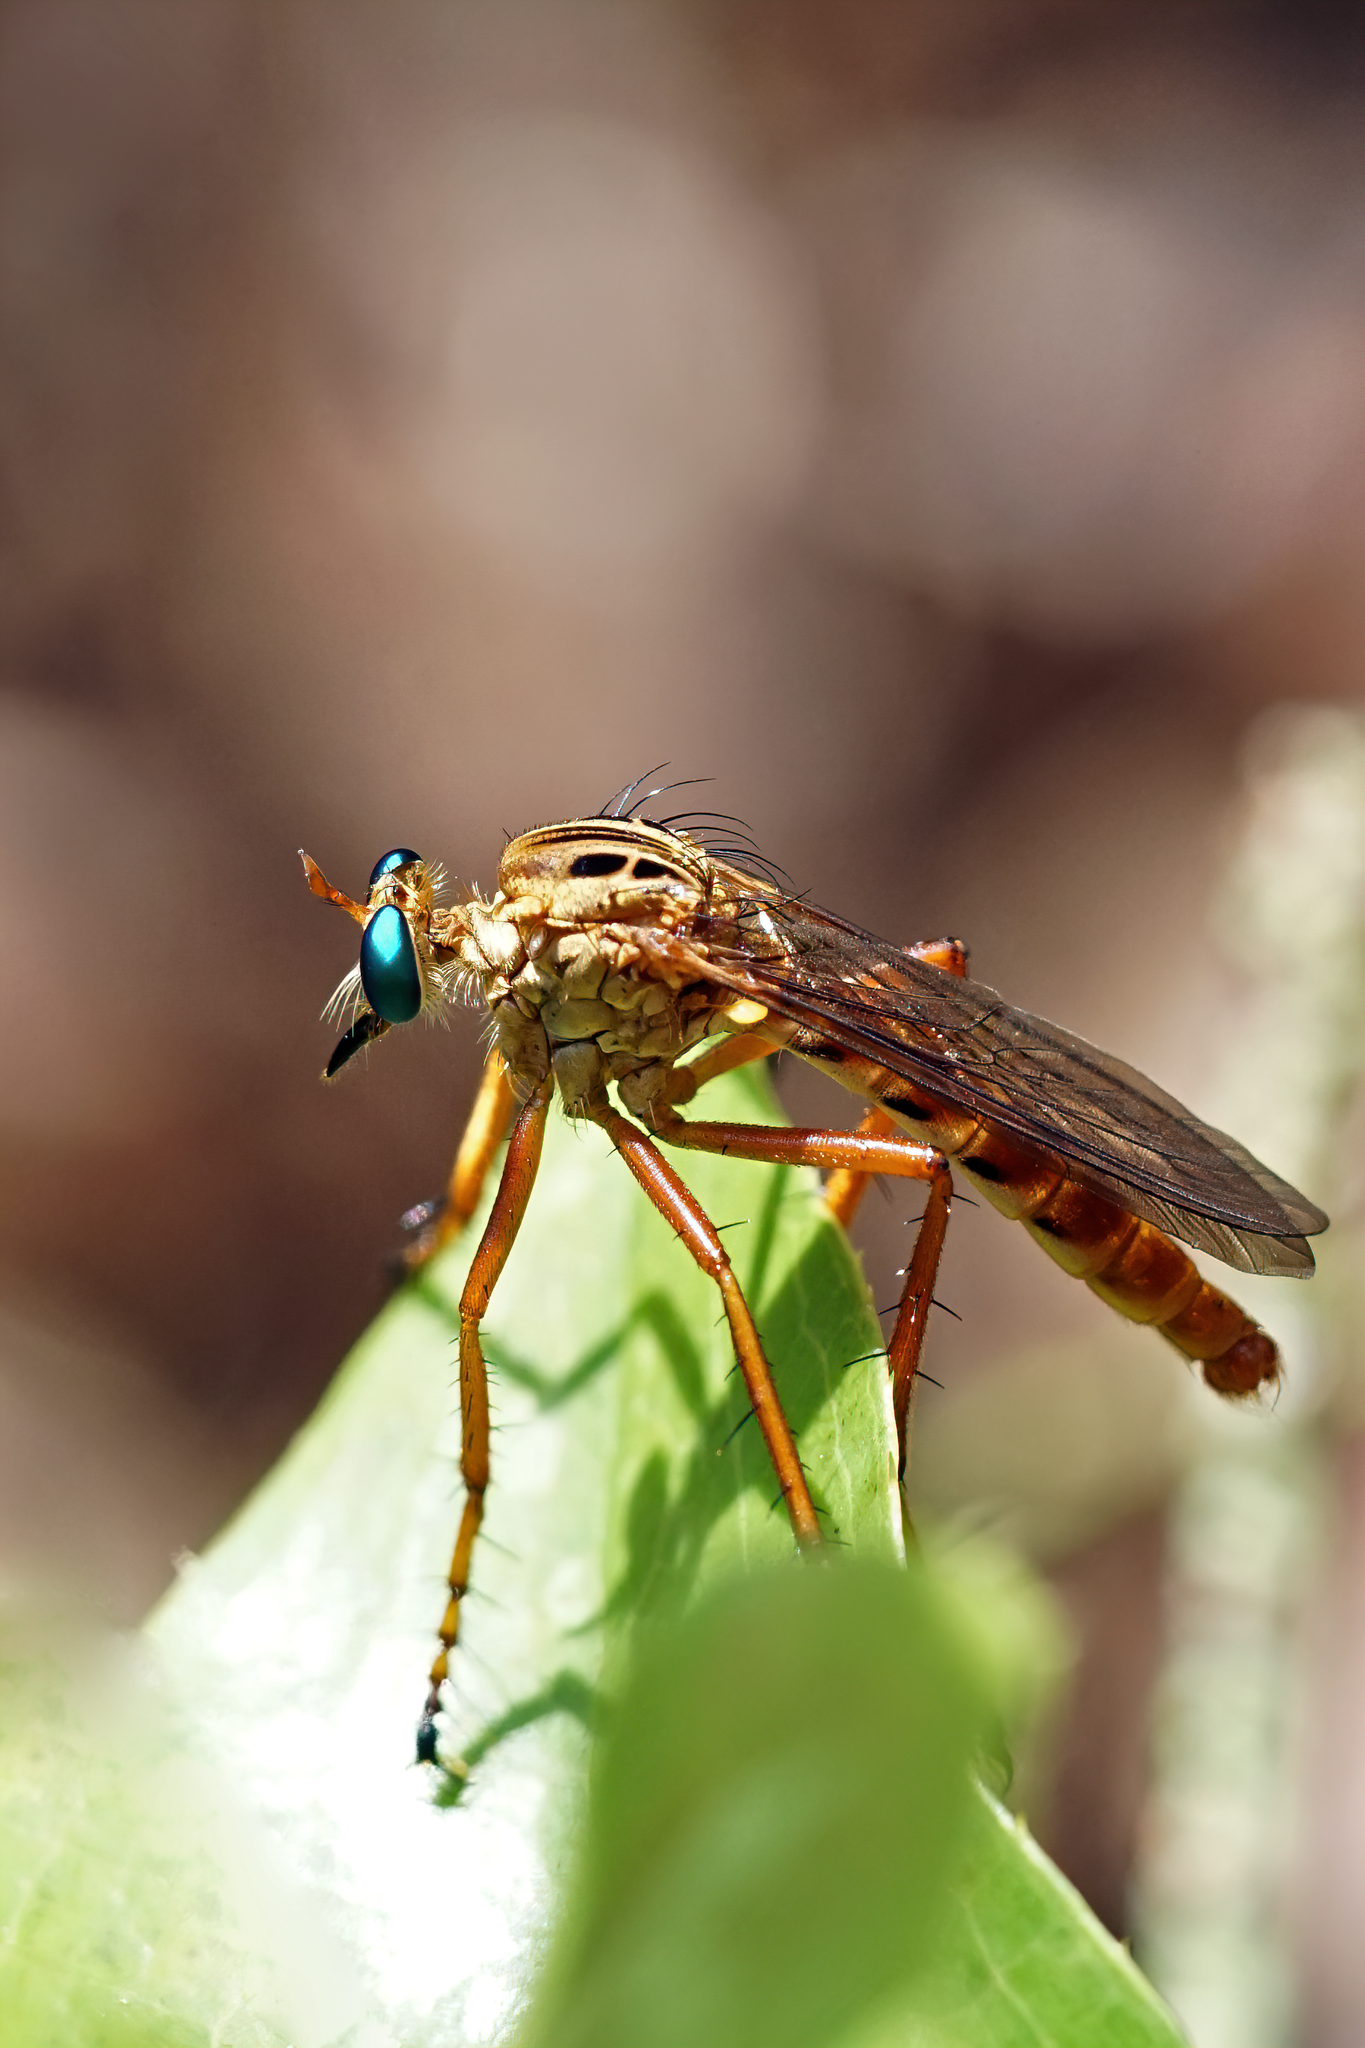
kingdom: Animalia
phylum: Arthropoda
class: Insecta
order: Diptera
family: Asilidae
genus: Diogmites
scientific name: Diogmites esuriens
